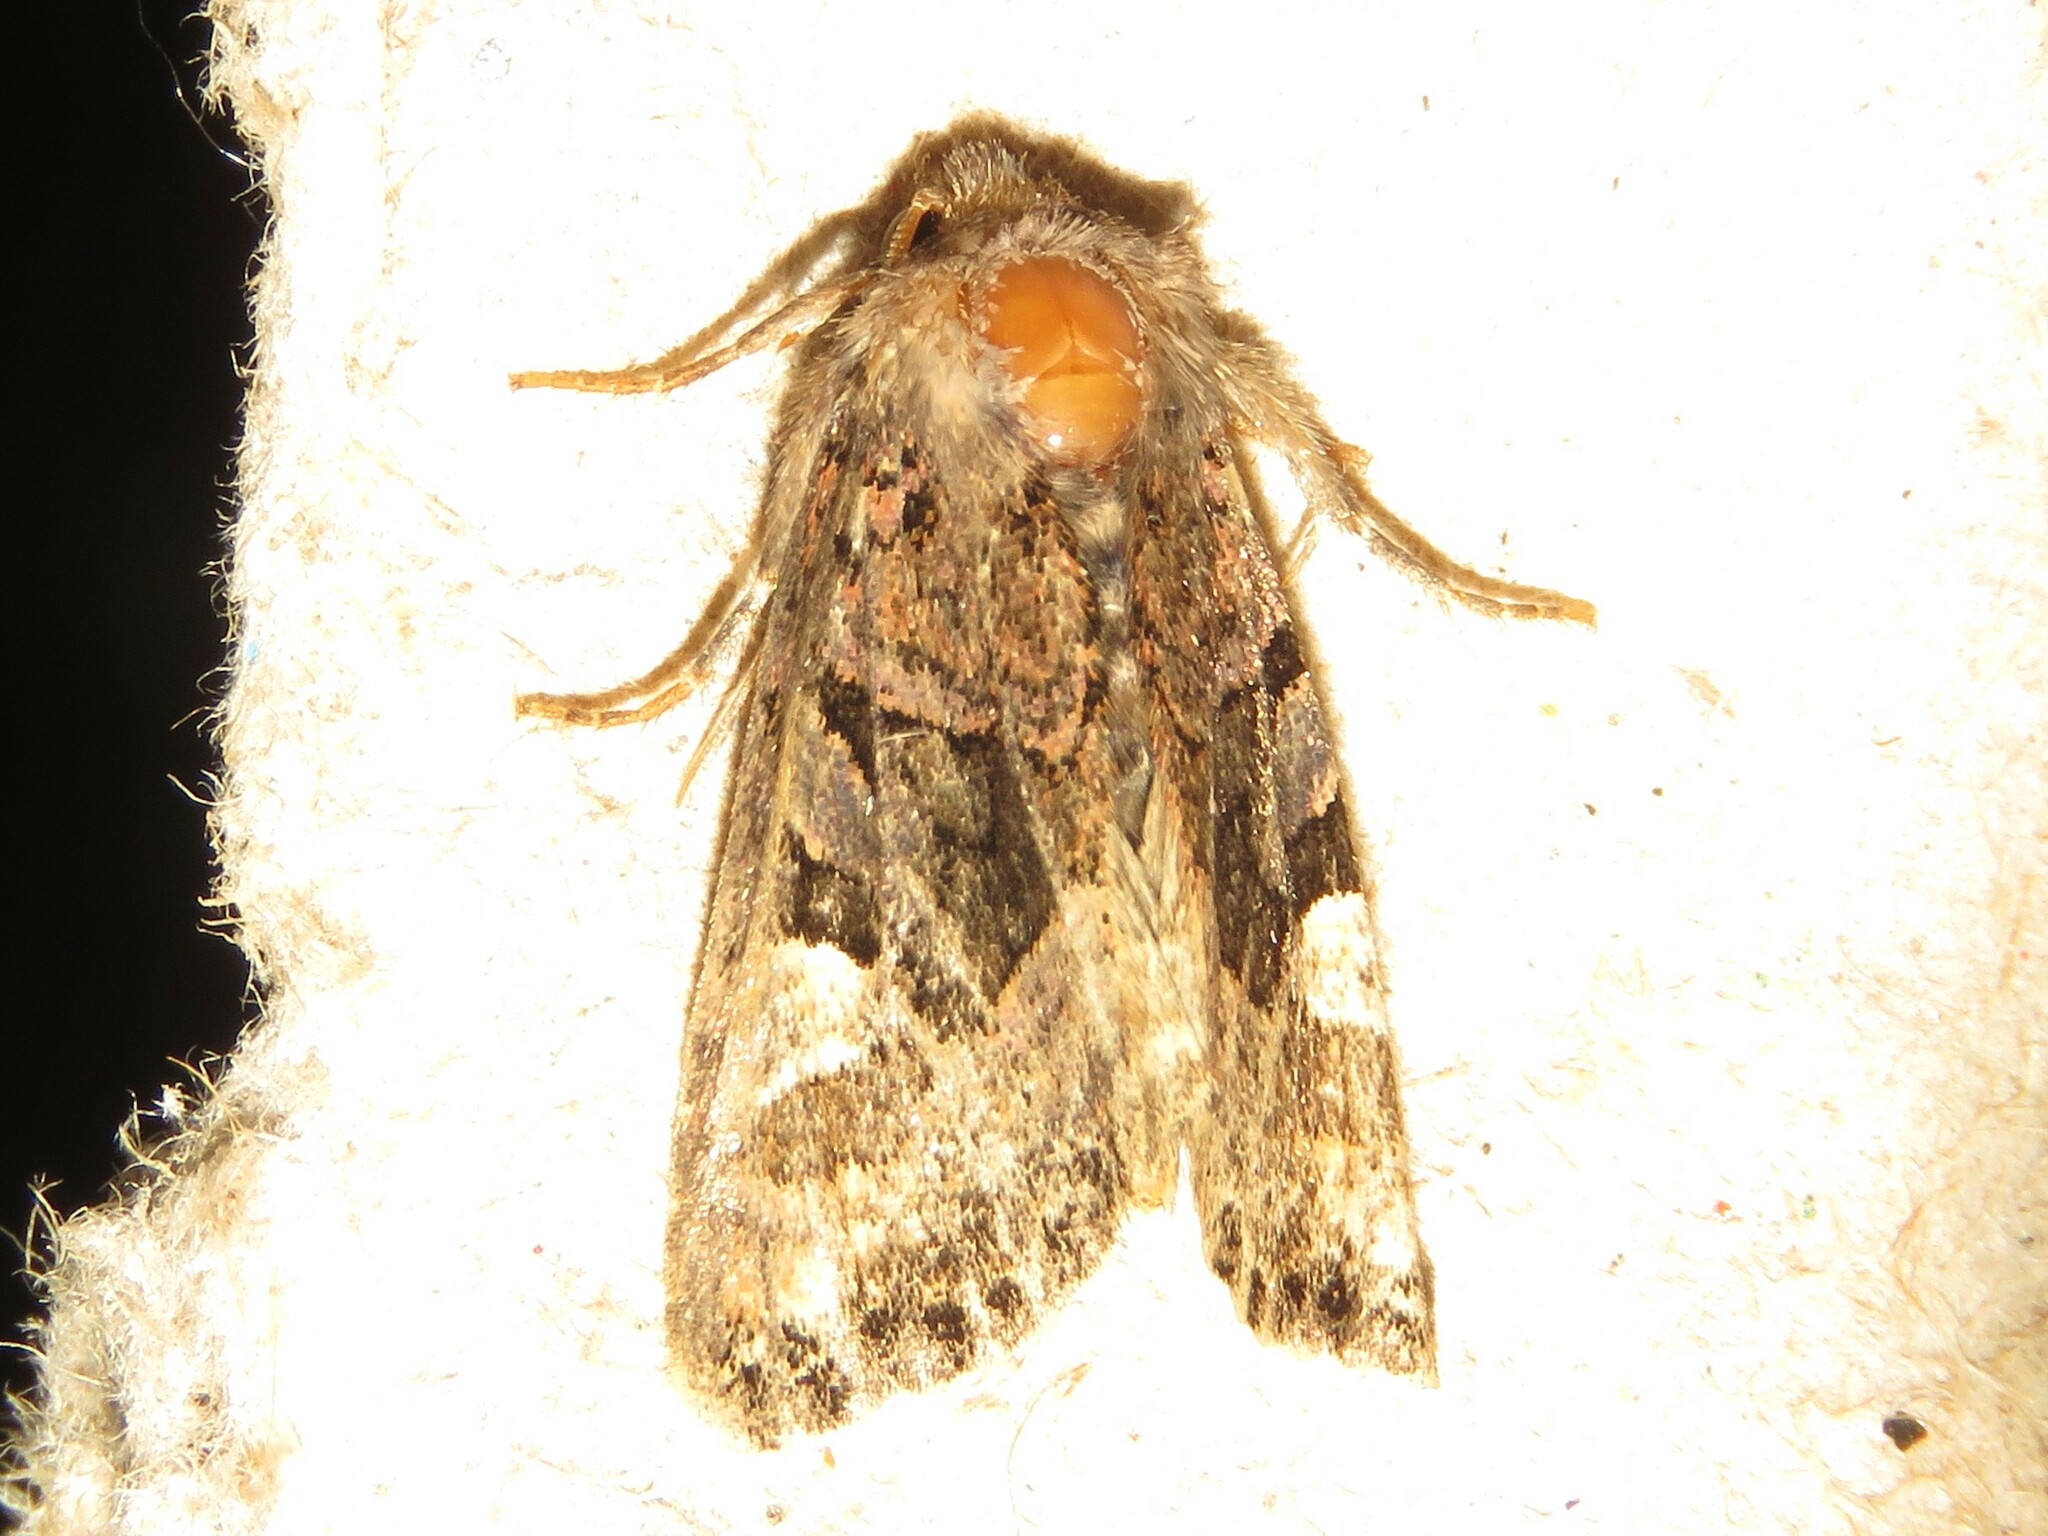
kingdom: Animalia
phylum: Arthropoda
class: Insecta
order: Lepidoptera
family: Noctuidae
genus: Euplexia
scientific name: Euplexia benesimilis
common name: American angle shades
